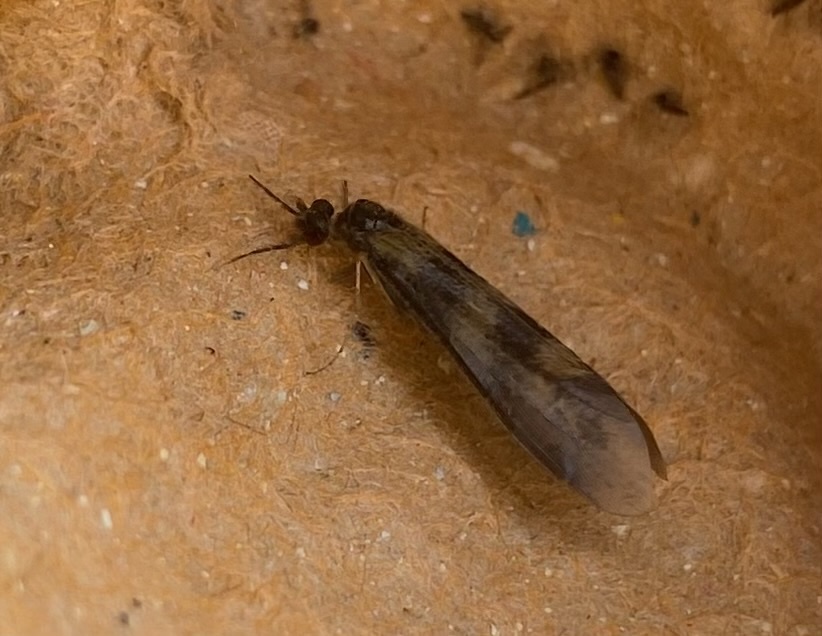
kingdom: Animalia
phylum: Arthropoda
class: Insecta
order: Trichoptera
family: Leptoceridae
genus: Mystacides
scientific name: Mystacides longicornis
